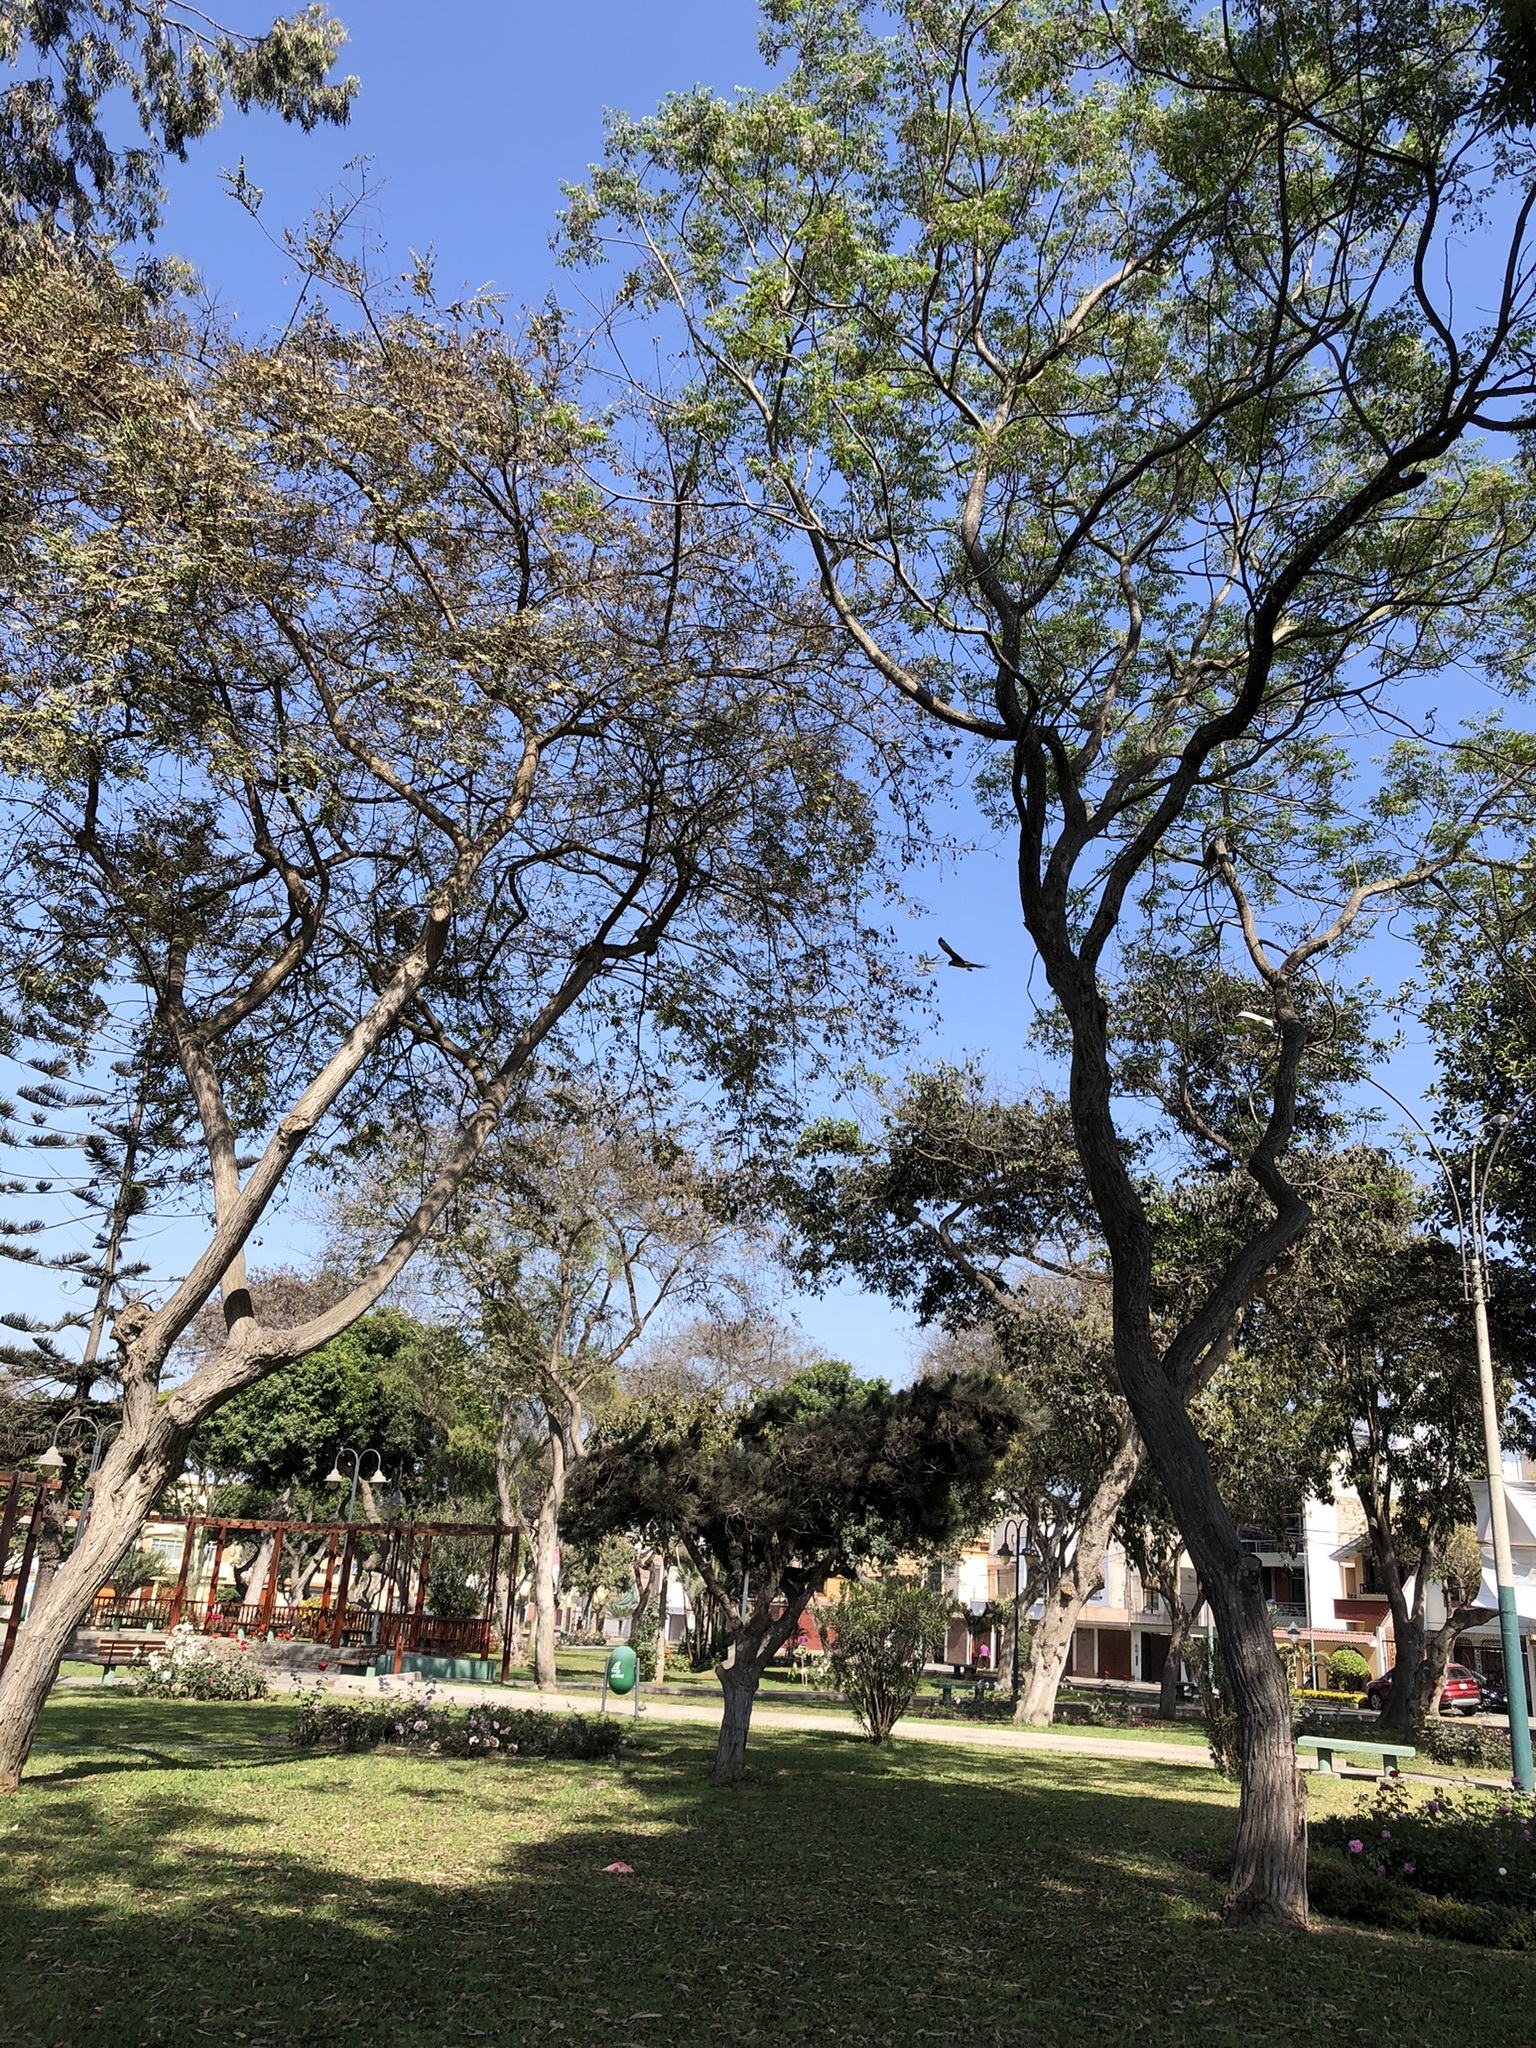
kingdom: Animalia
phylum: Chordata
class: Aves
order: Accipitriformes
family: Accipitridae
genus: Parabuteo
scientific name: Parabuteo unicinctus
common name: Harris's hawk
